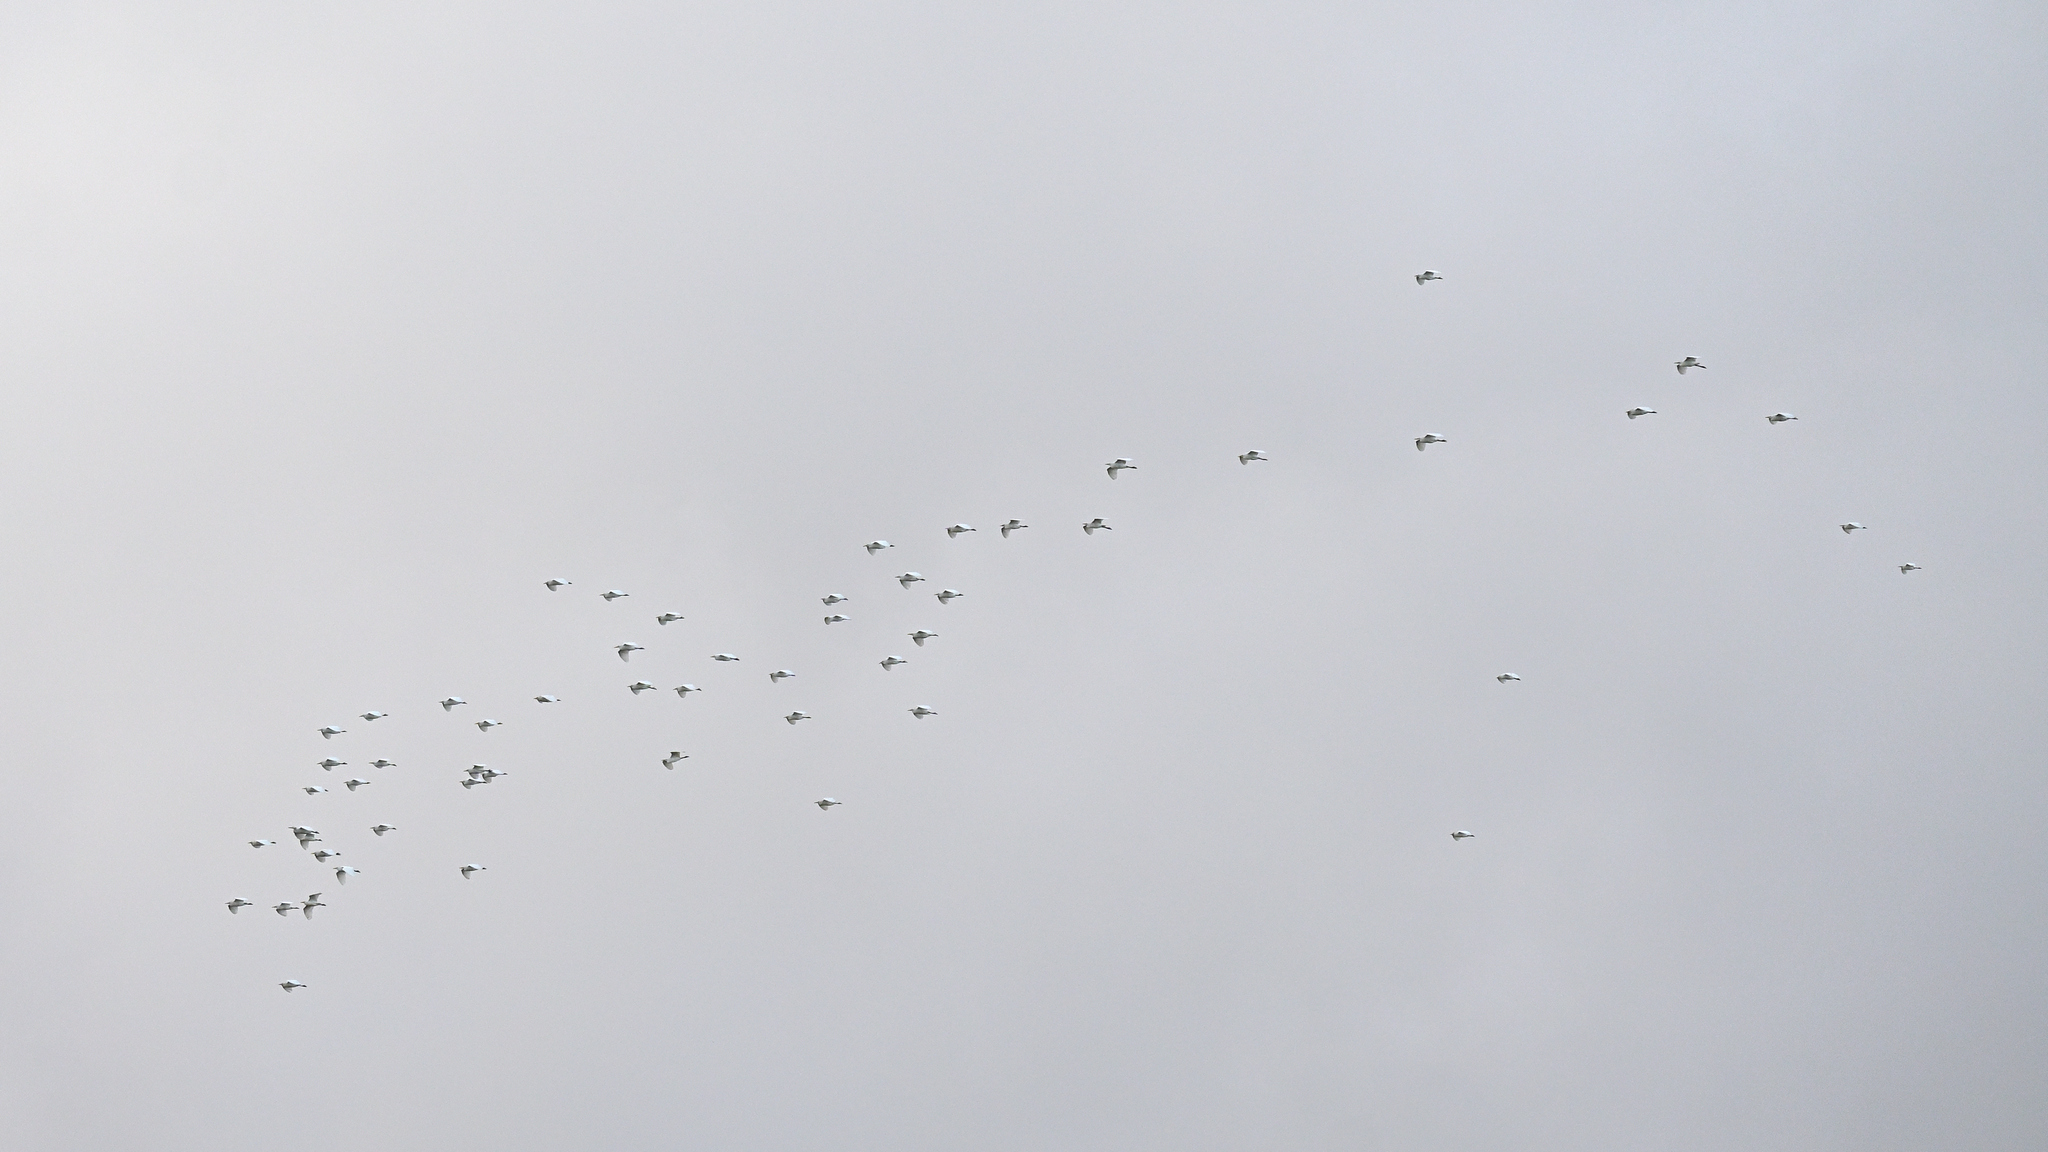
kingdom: Animalia
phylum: Chordata
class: Aves
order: Pelecaniformes
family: Ardeidae
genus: Bubulcus
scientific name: Bubulcus ibis
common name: Cattle egret
